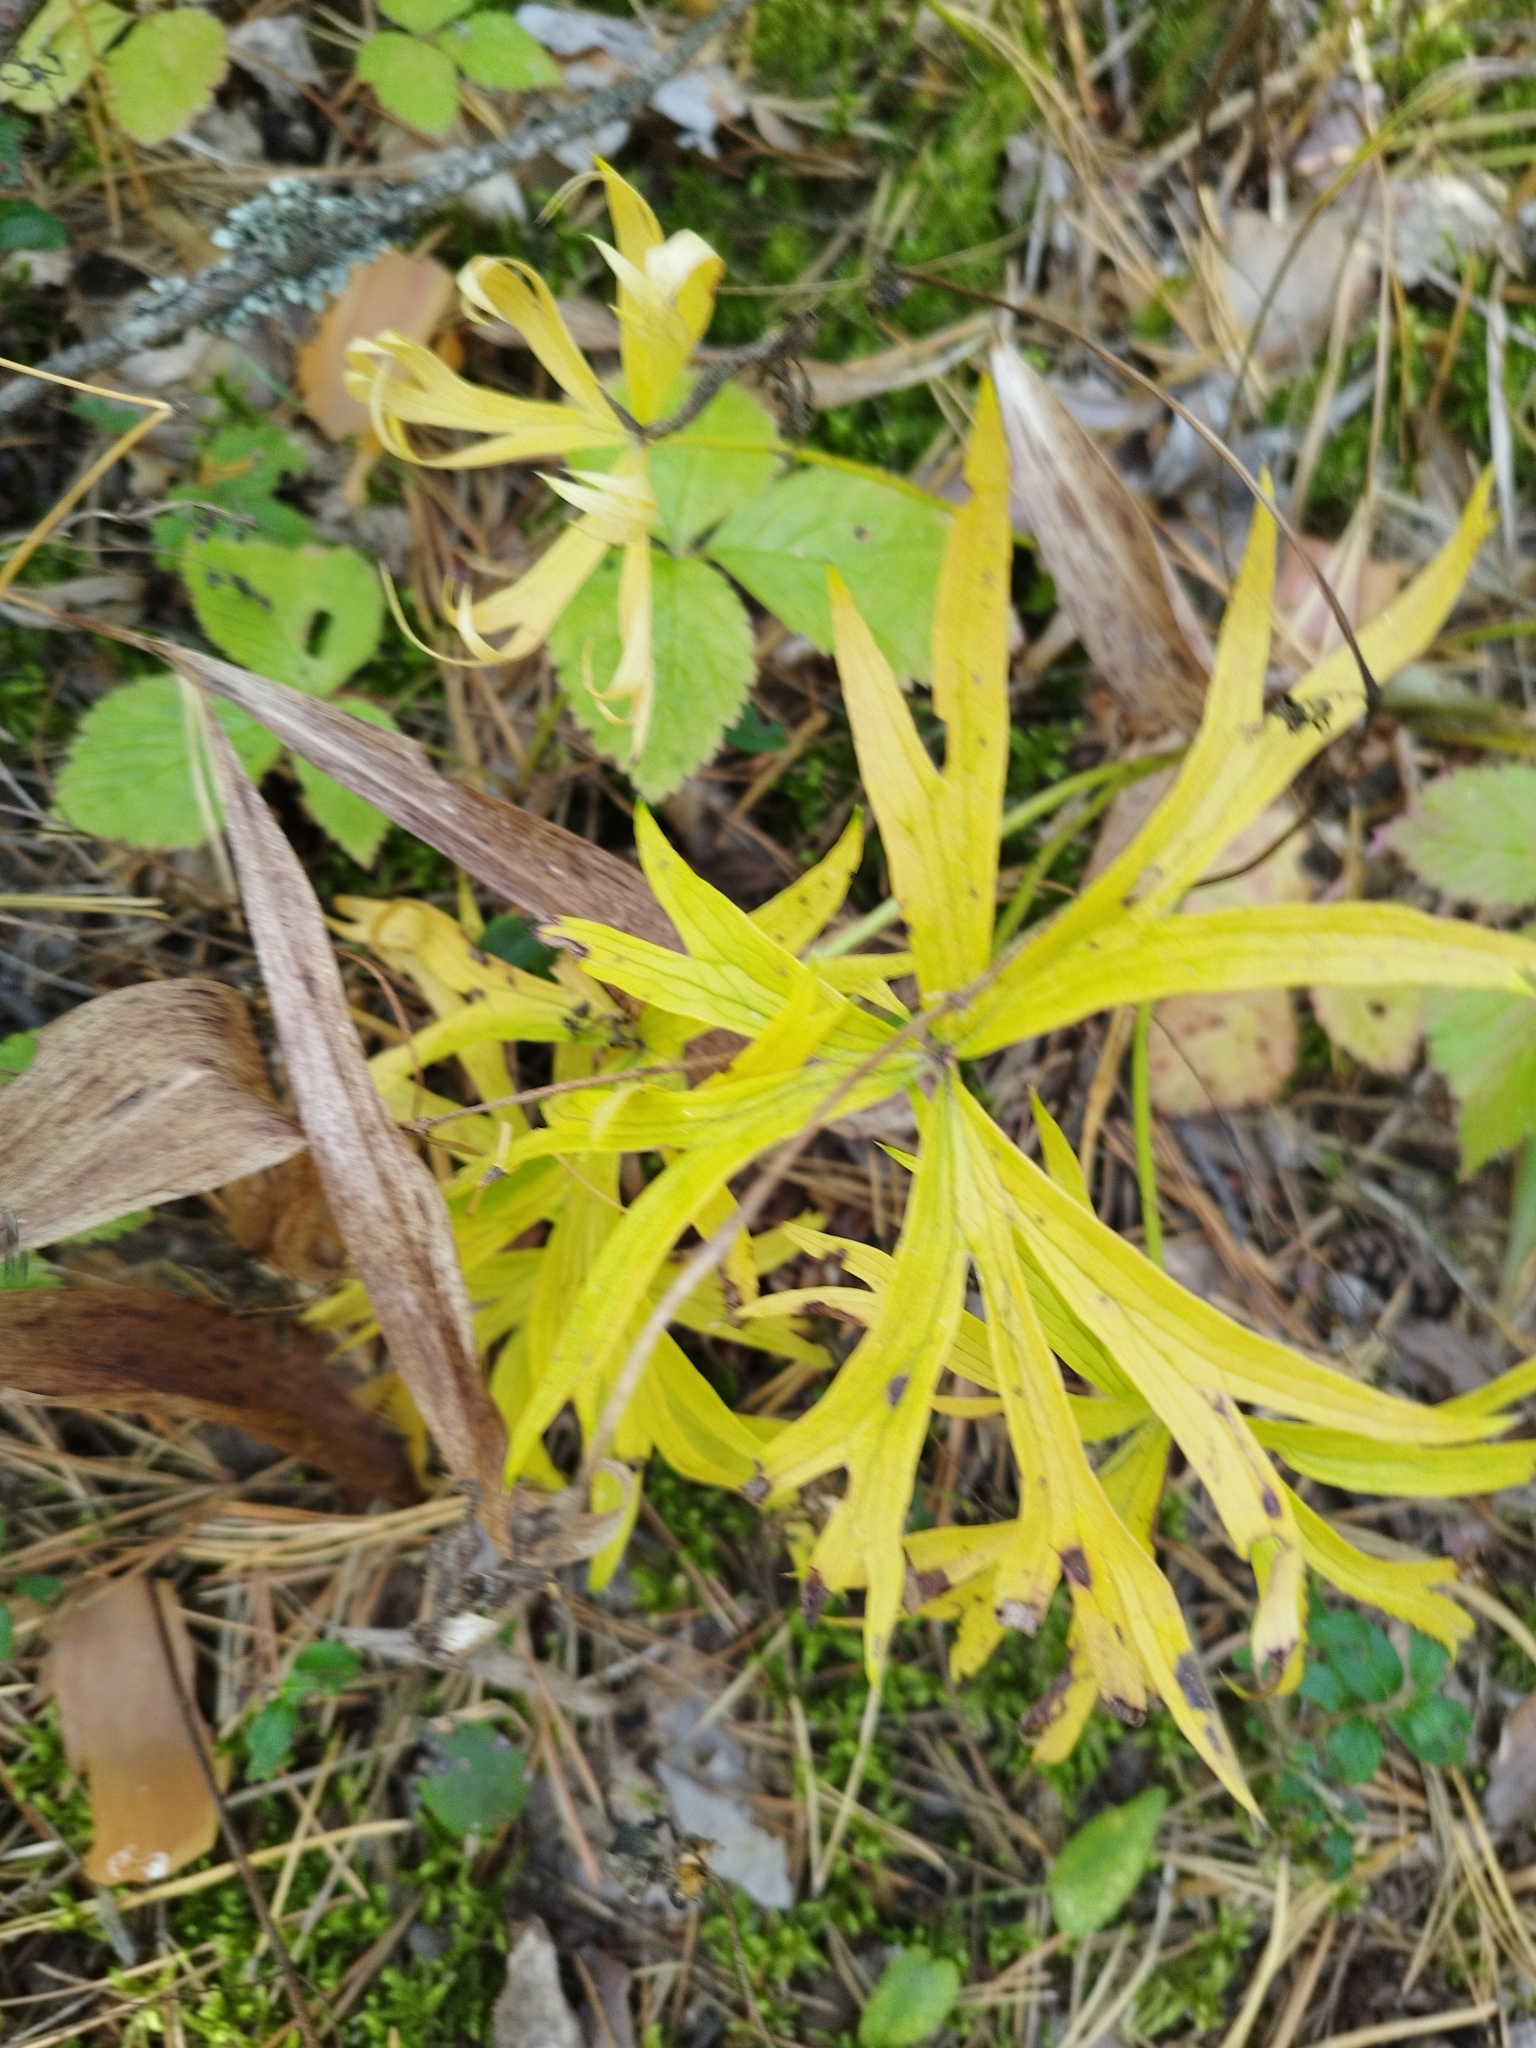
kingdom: Plantae
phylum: Tracheophyta
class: Magnoliopsida
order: Ranunculales
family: Ranunculaceae
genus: Pulsatilla
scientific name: Pulsatilla patens
